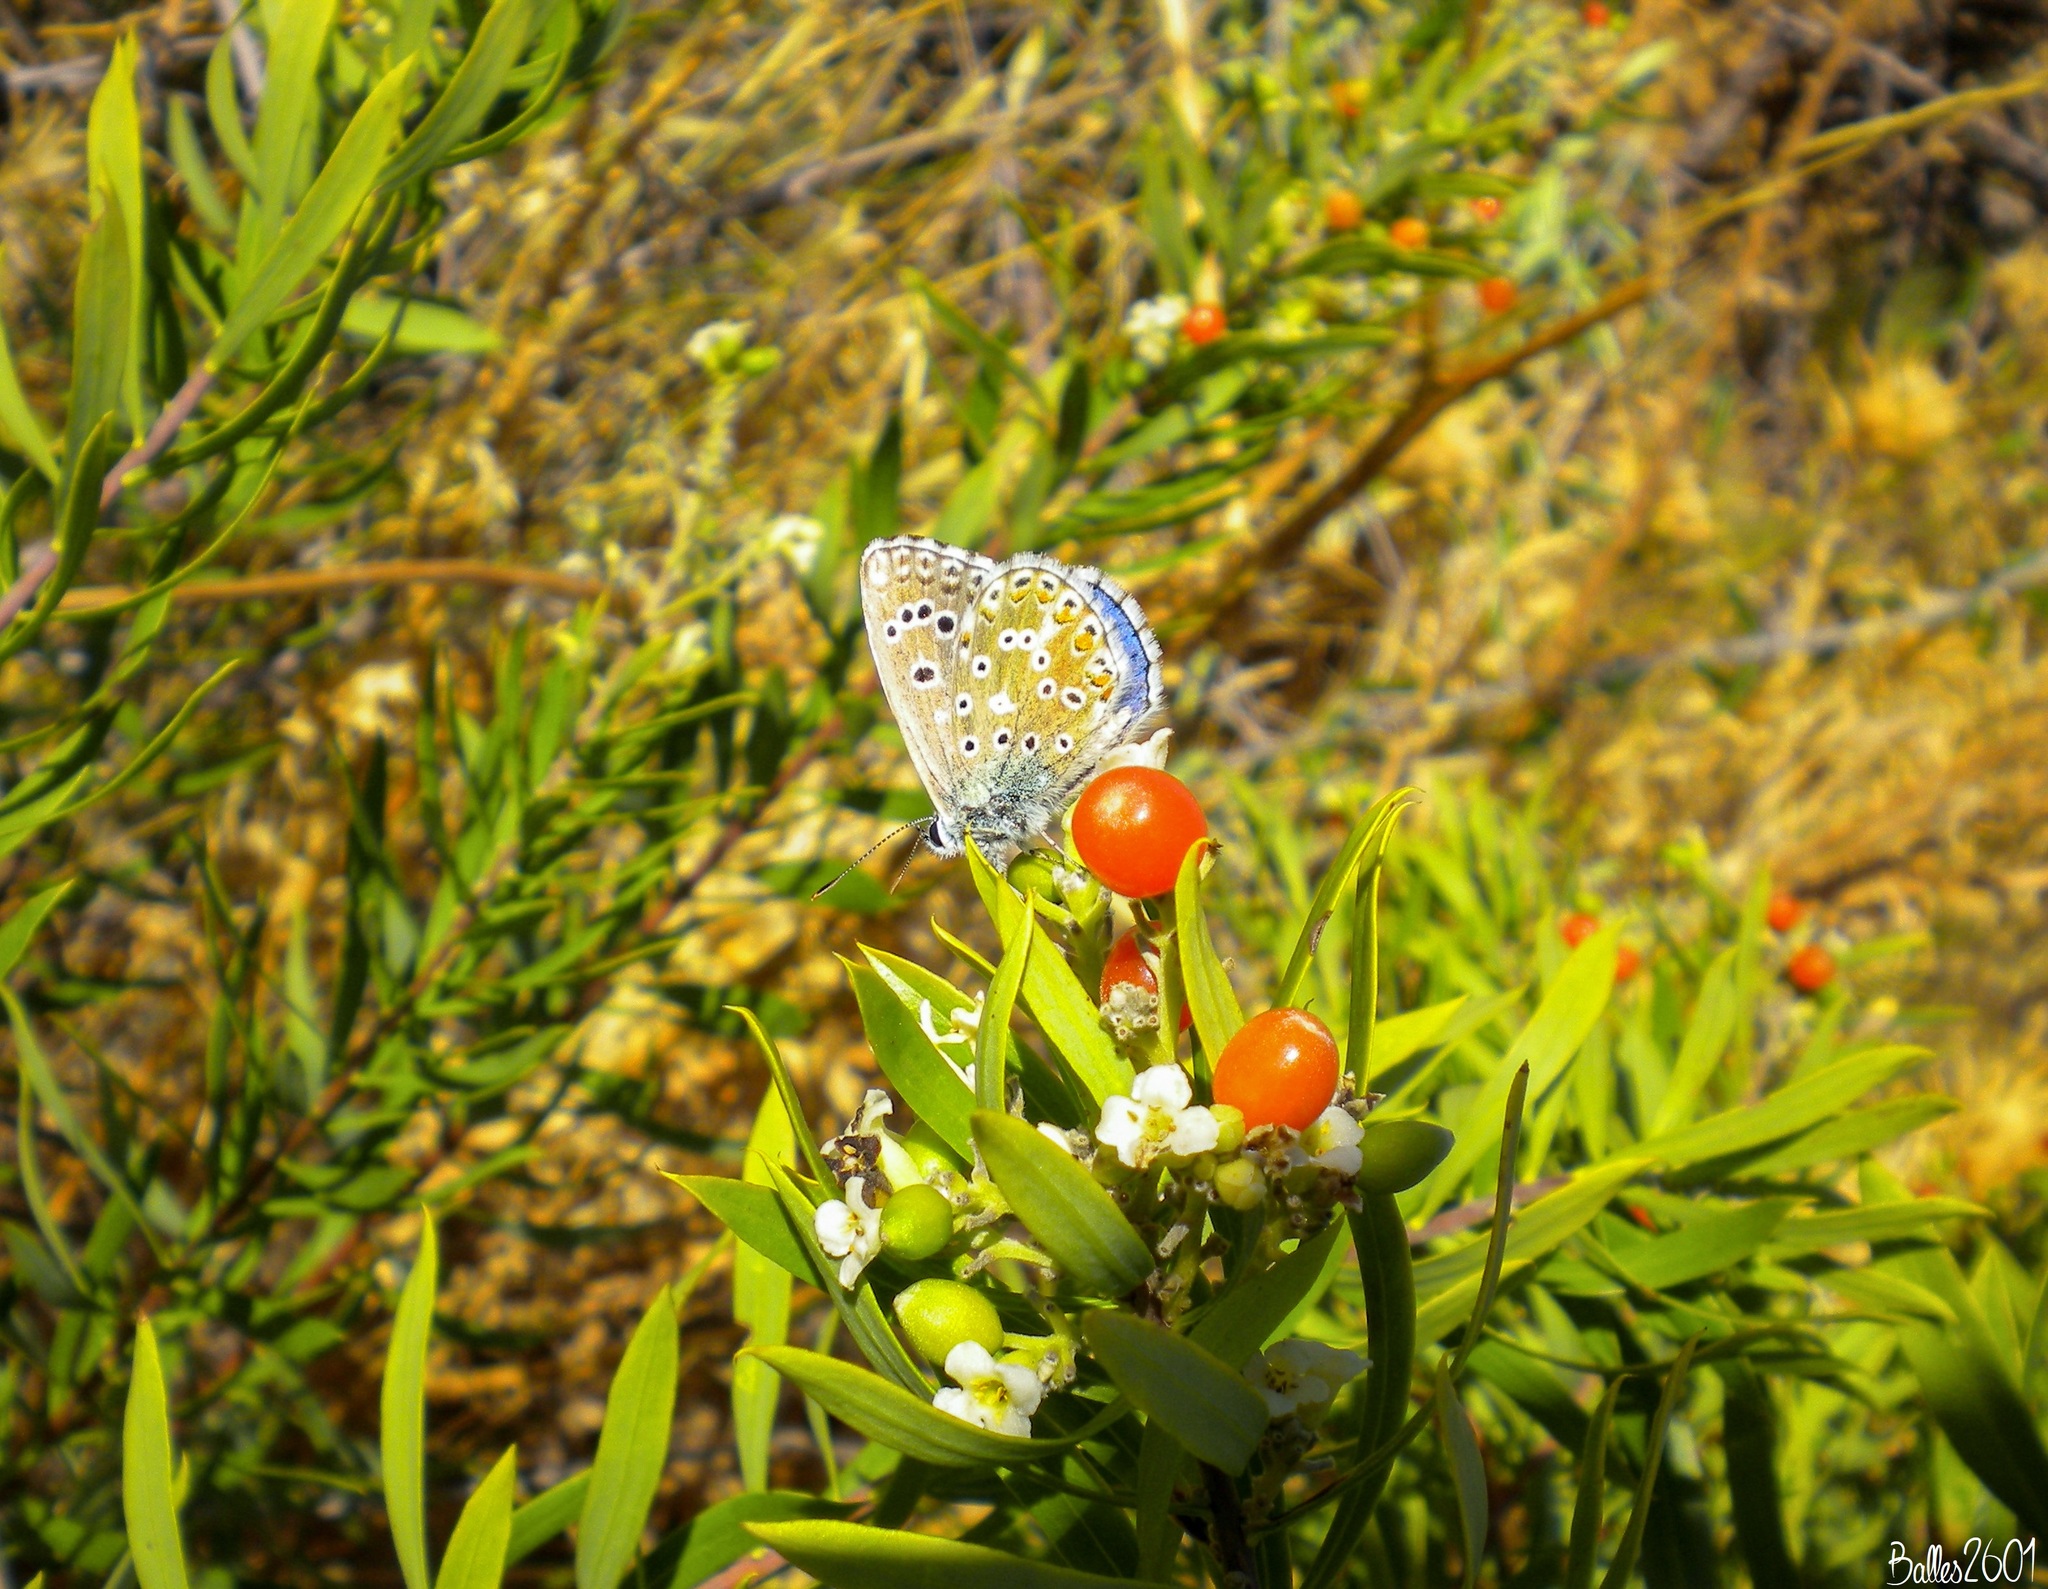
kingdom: Animalia
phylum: Arthropoda
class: Insecta
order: Lepidoptera
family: Lycaenidae
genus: Lysandra
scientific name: Lysandra bellargus
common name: Adonis blue
